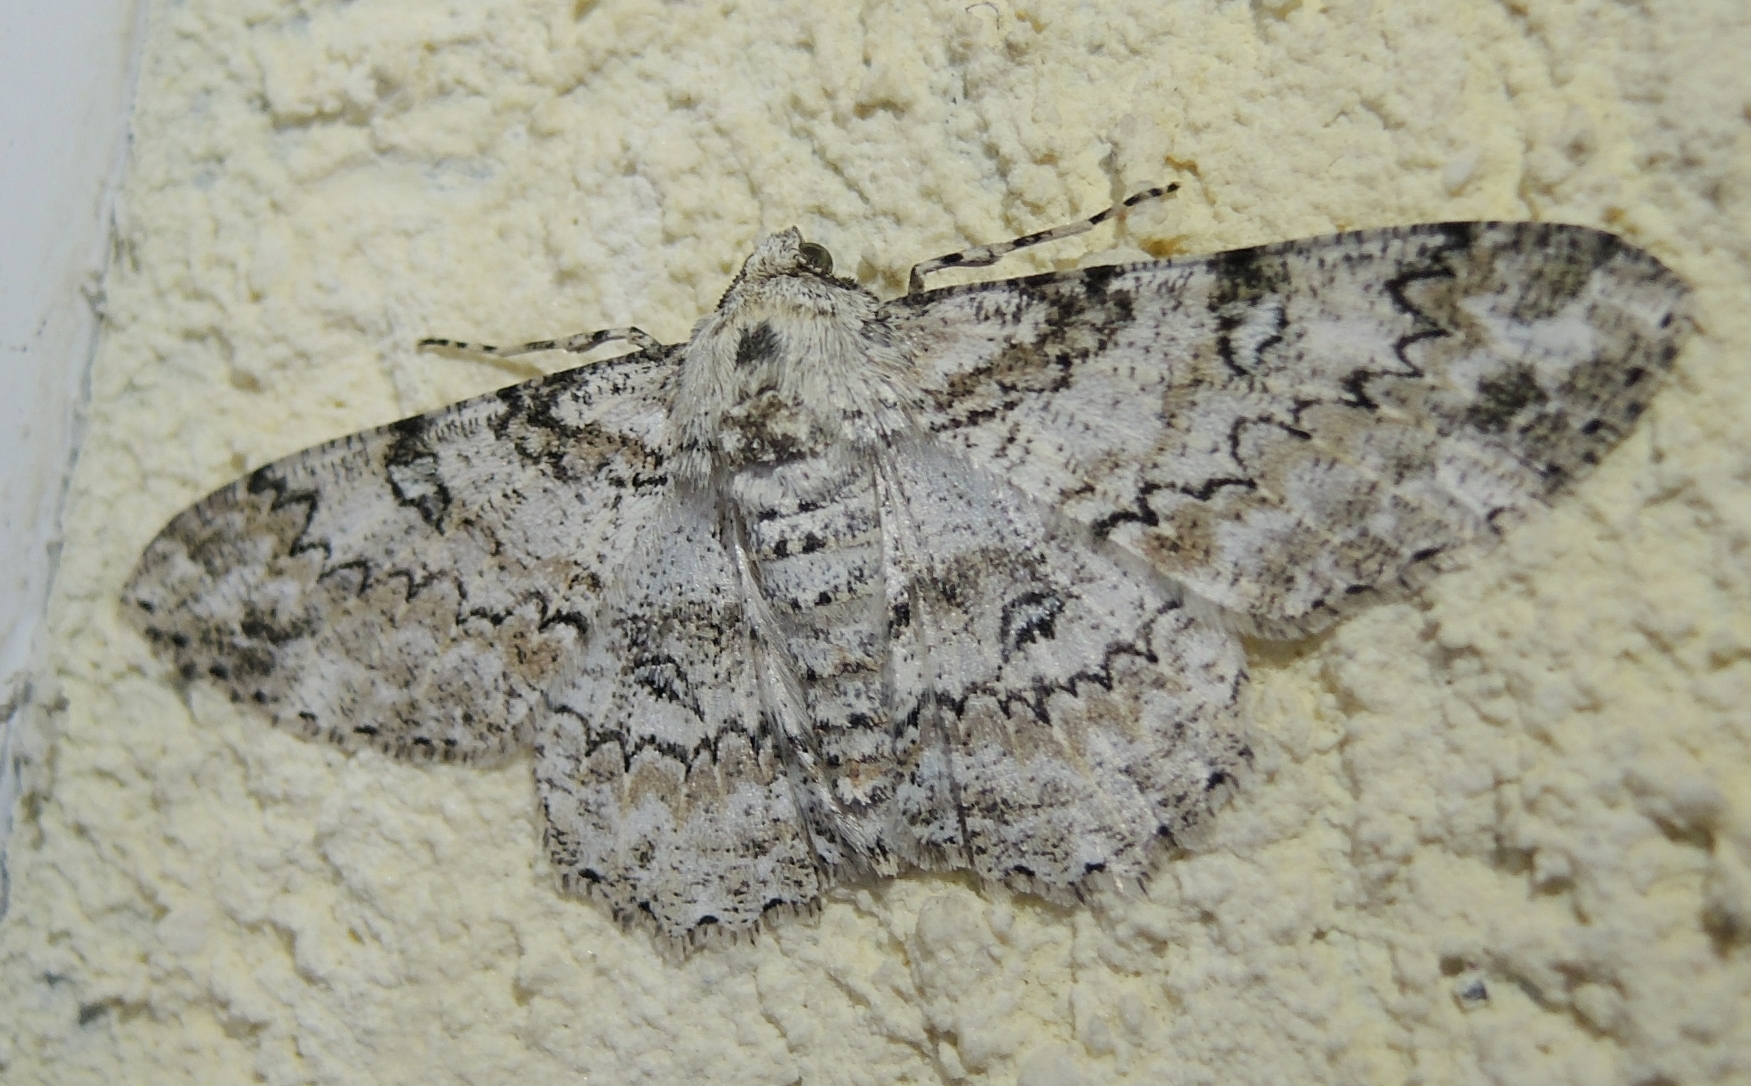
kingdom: Animalia
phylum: Arthropoda
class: Insecta
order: Lepidoptera
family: Geometridae
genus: Ascotis
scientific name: Ascotis selenaria
